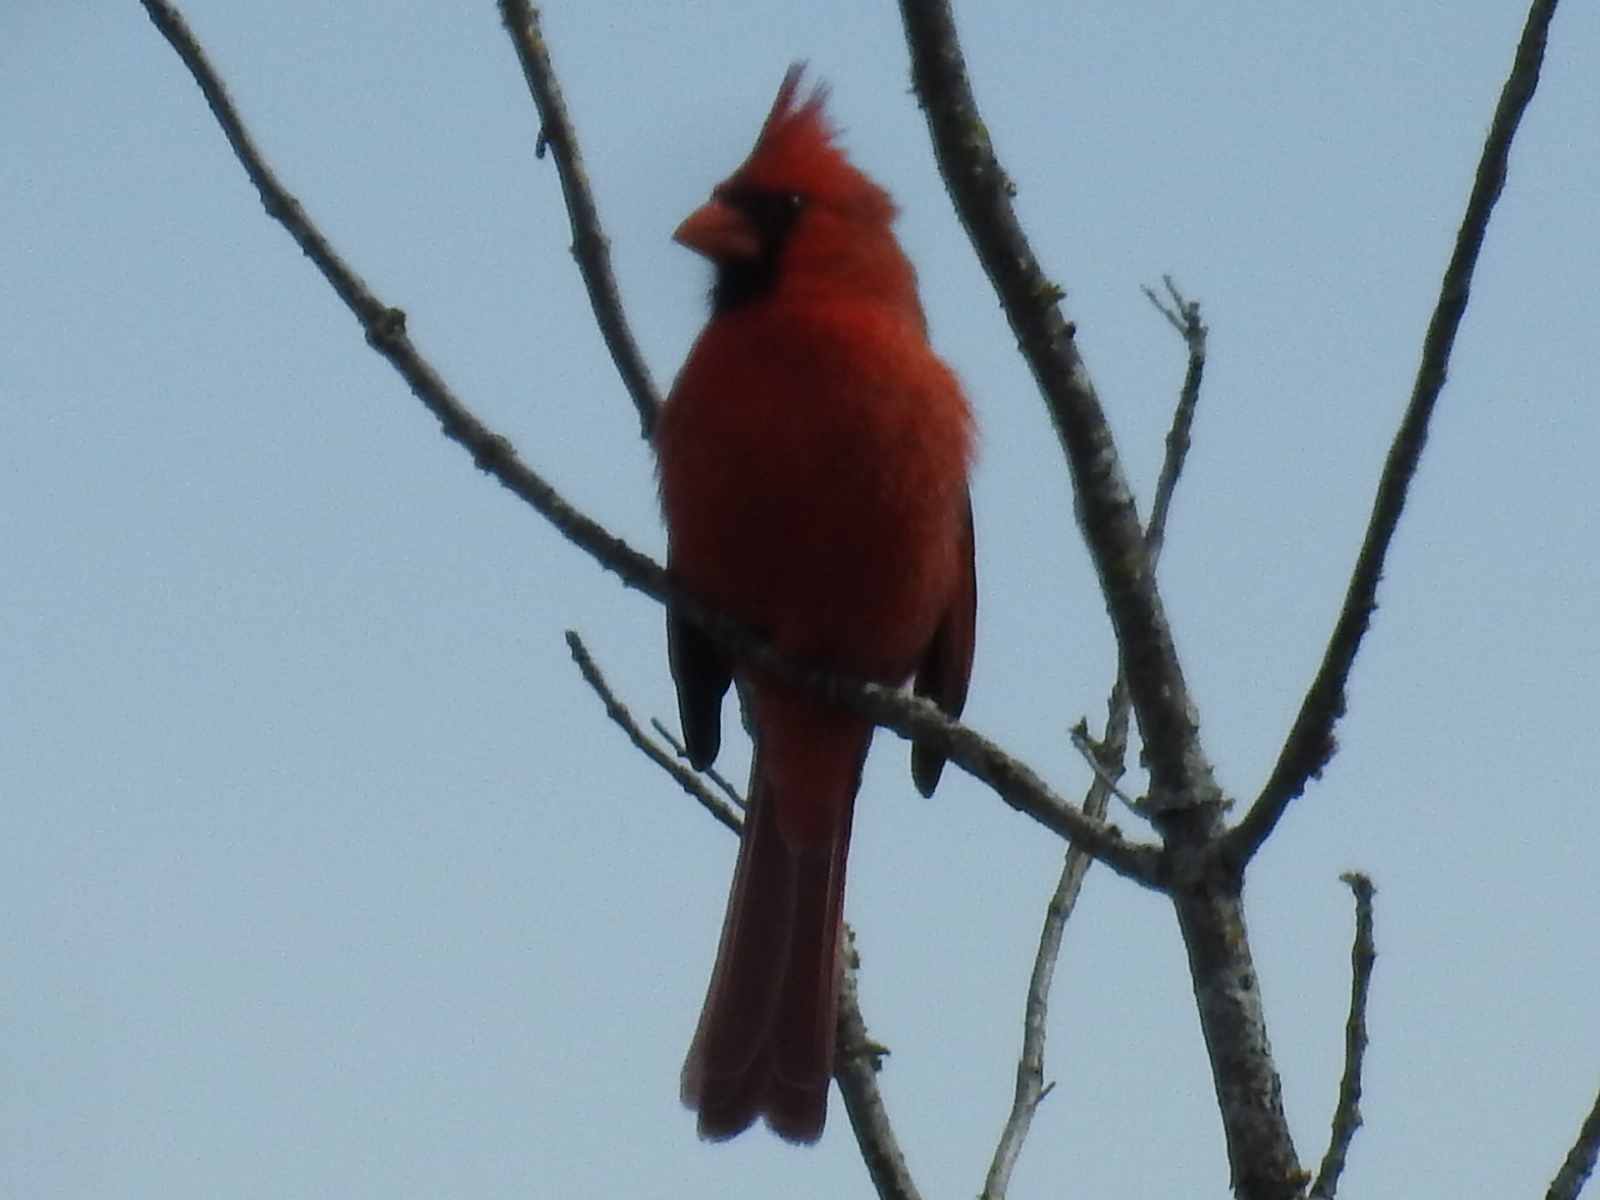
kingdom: Animalia
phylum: Chordata
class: Aves
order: Passeriformes
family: Cardinalidae
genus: Cardinalis
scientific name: Cardinalis cardinalis
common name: Northern cardinal
